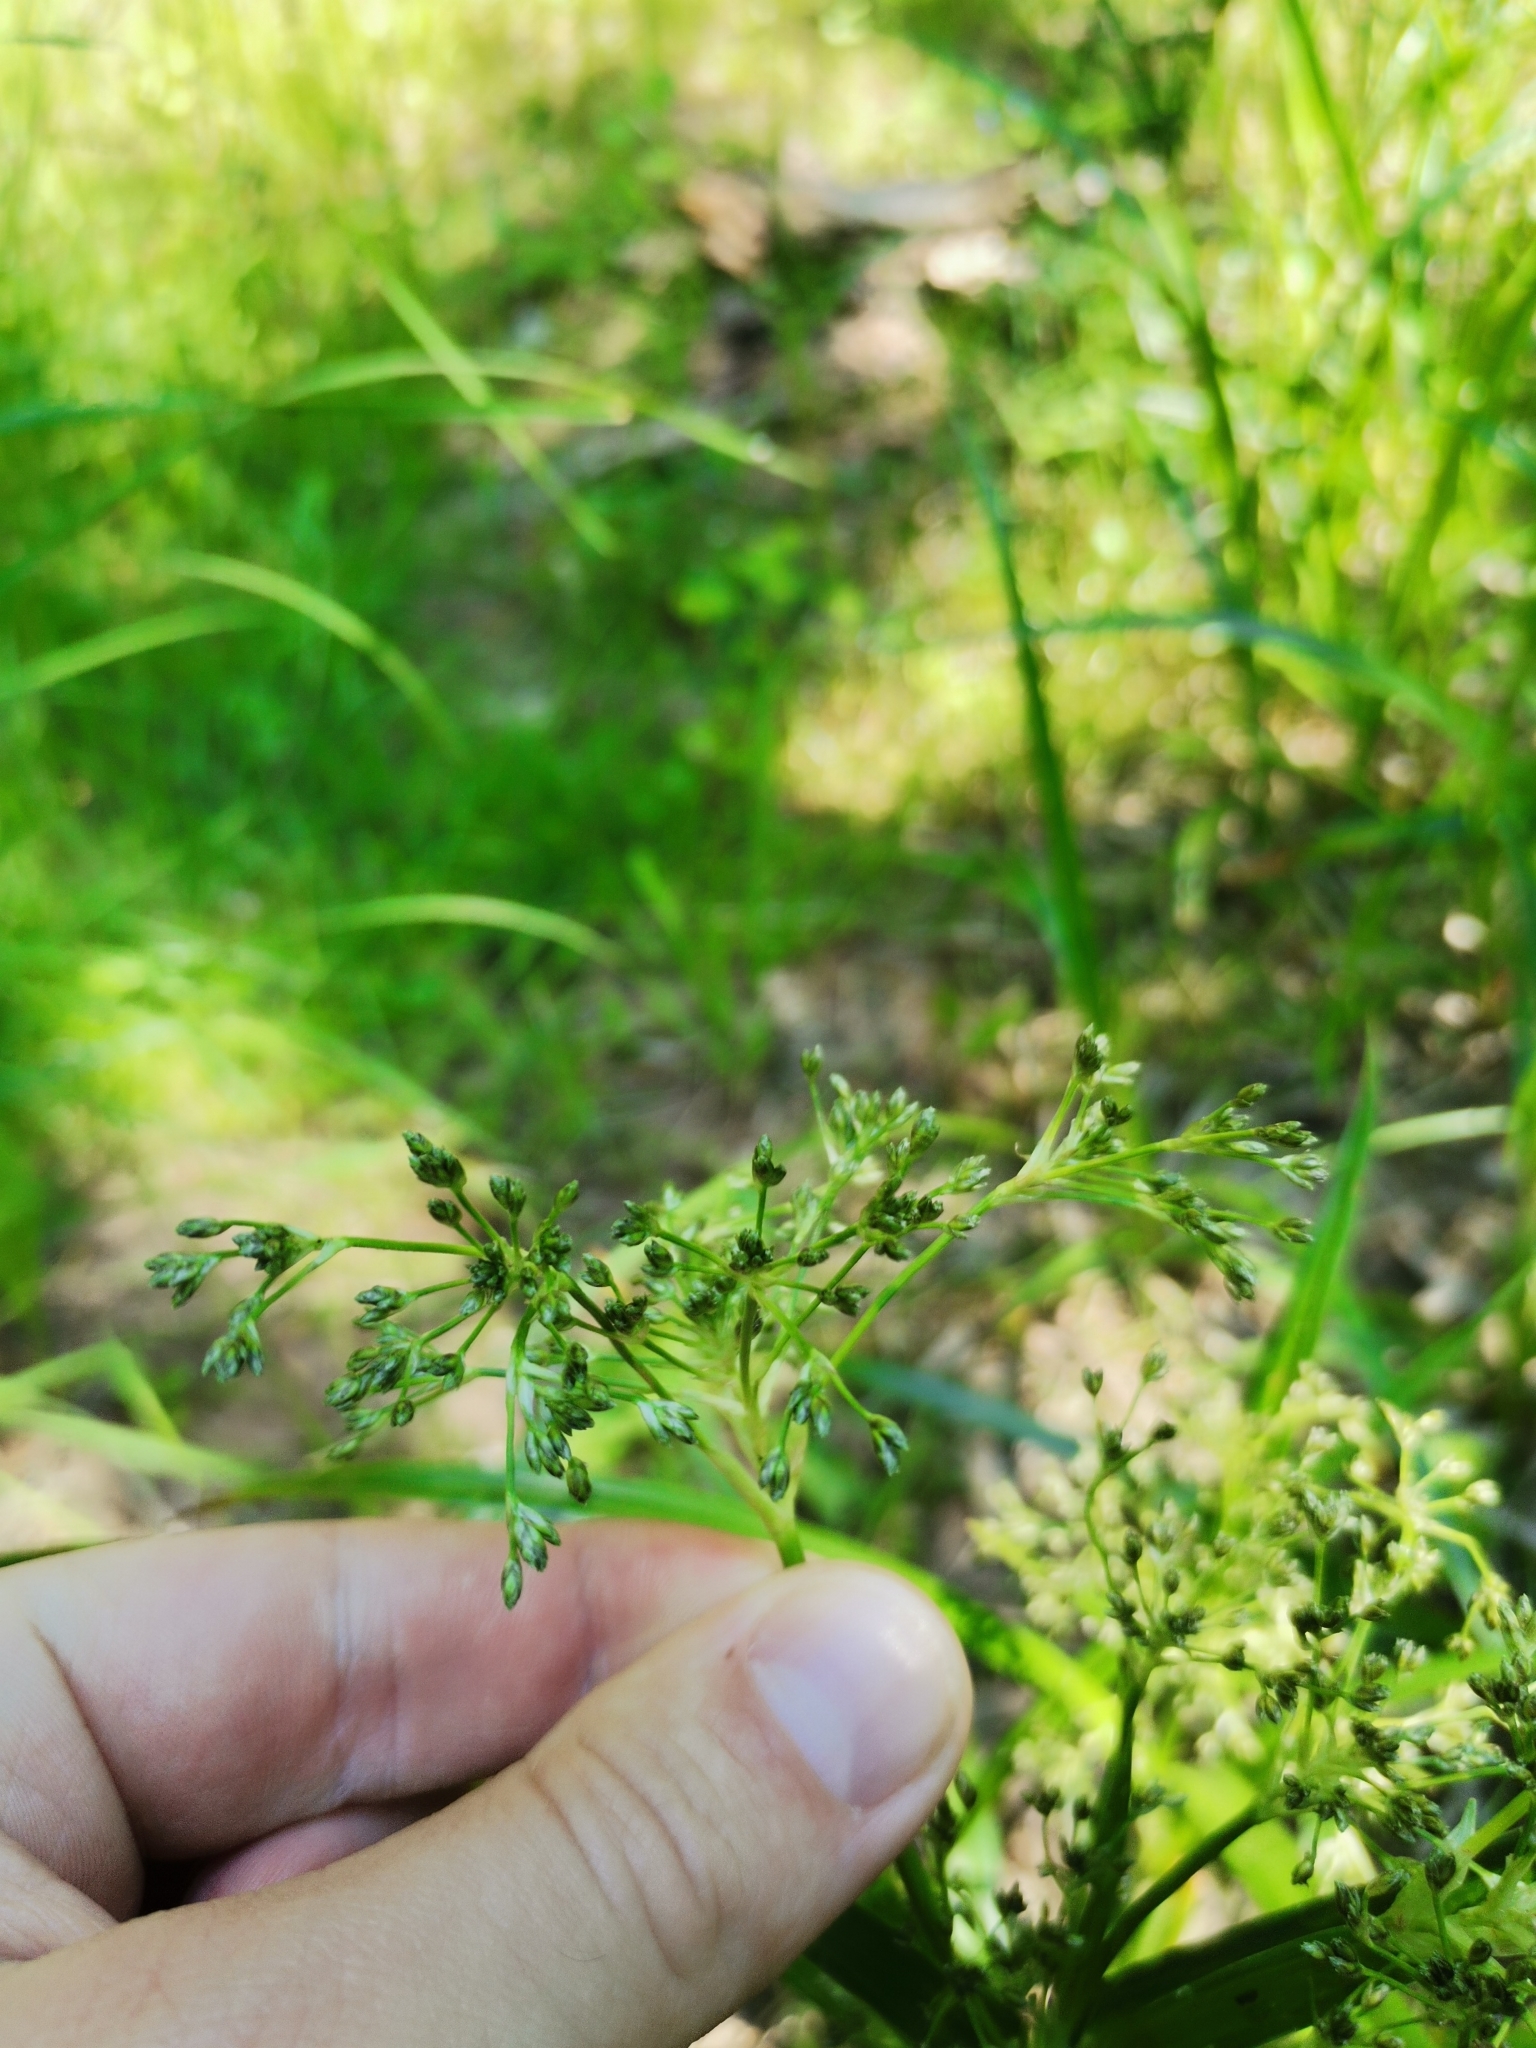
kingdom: Plantae
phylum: Tracheophyta
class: Liliopsida
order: Poales
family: Cyperaceae
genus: Scirpus
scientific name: Scirpus sylvaticus
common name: Wood club-rush
